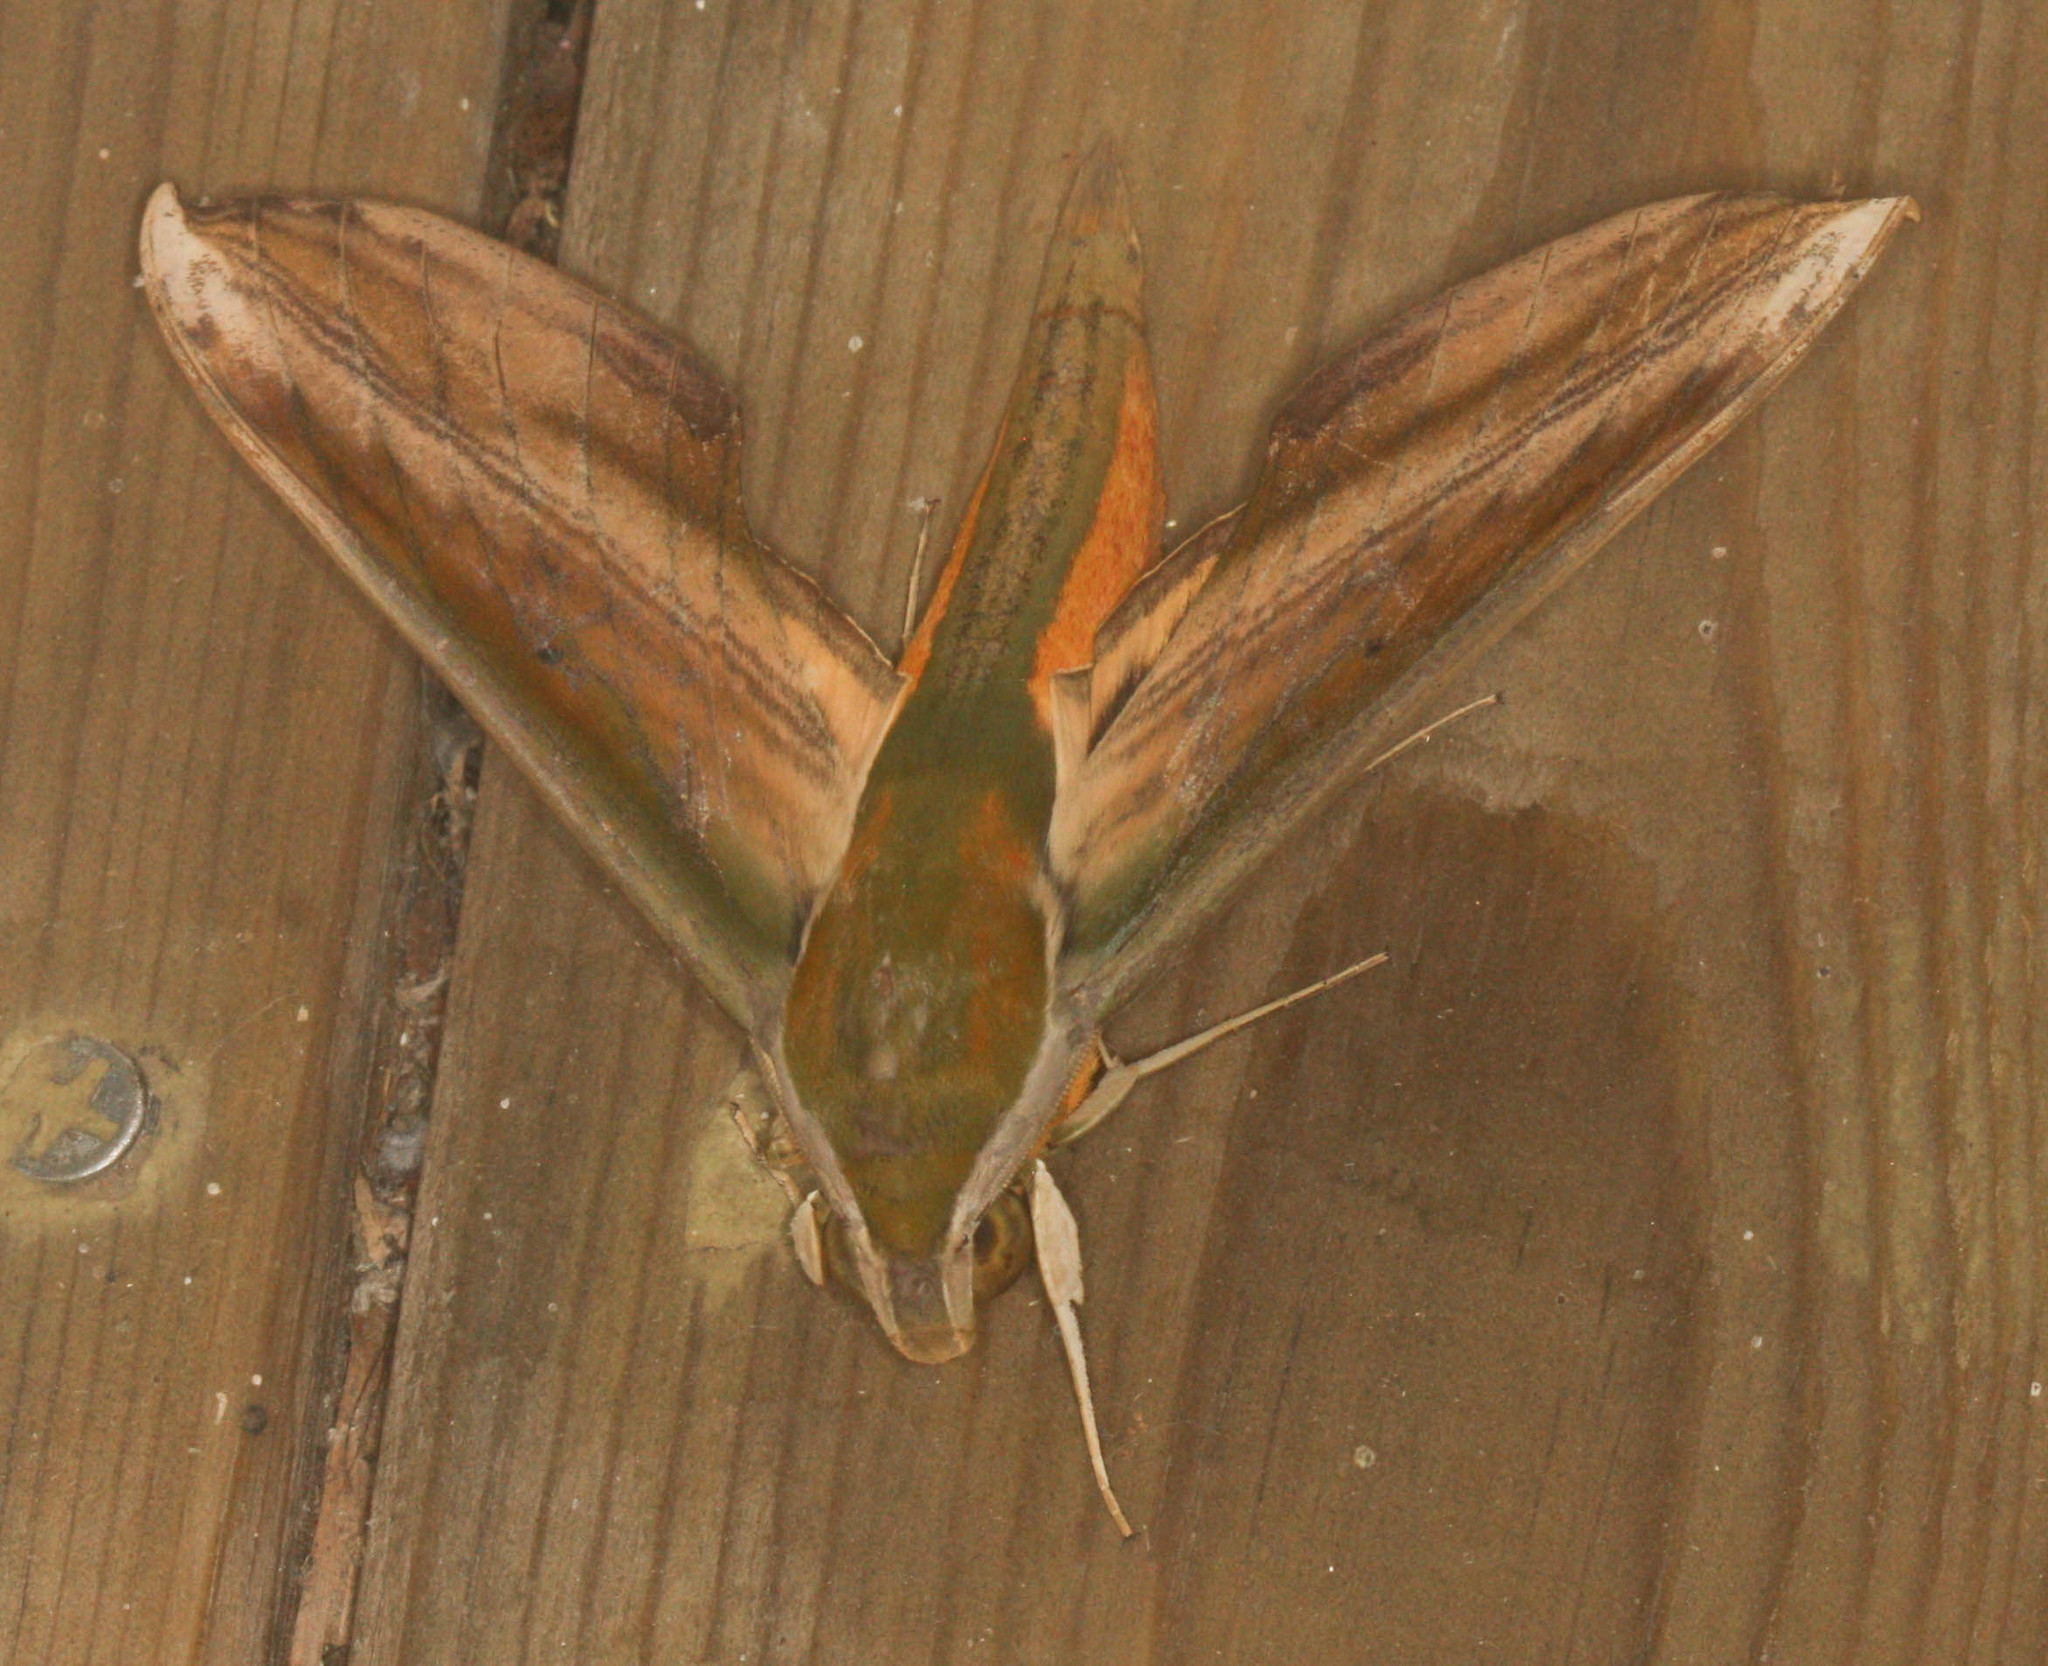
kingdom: Animalia
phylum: Arthropoda
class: Insecta
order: Lepidoptera
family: Sphingidae
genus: Theretra
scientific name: Theretra nessus
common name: Yam hawk moth
